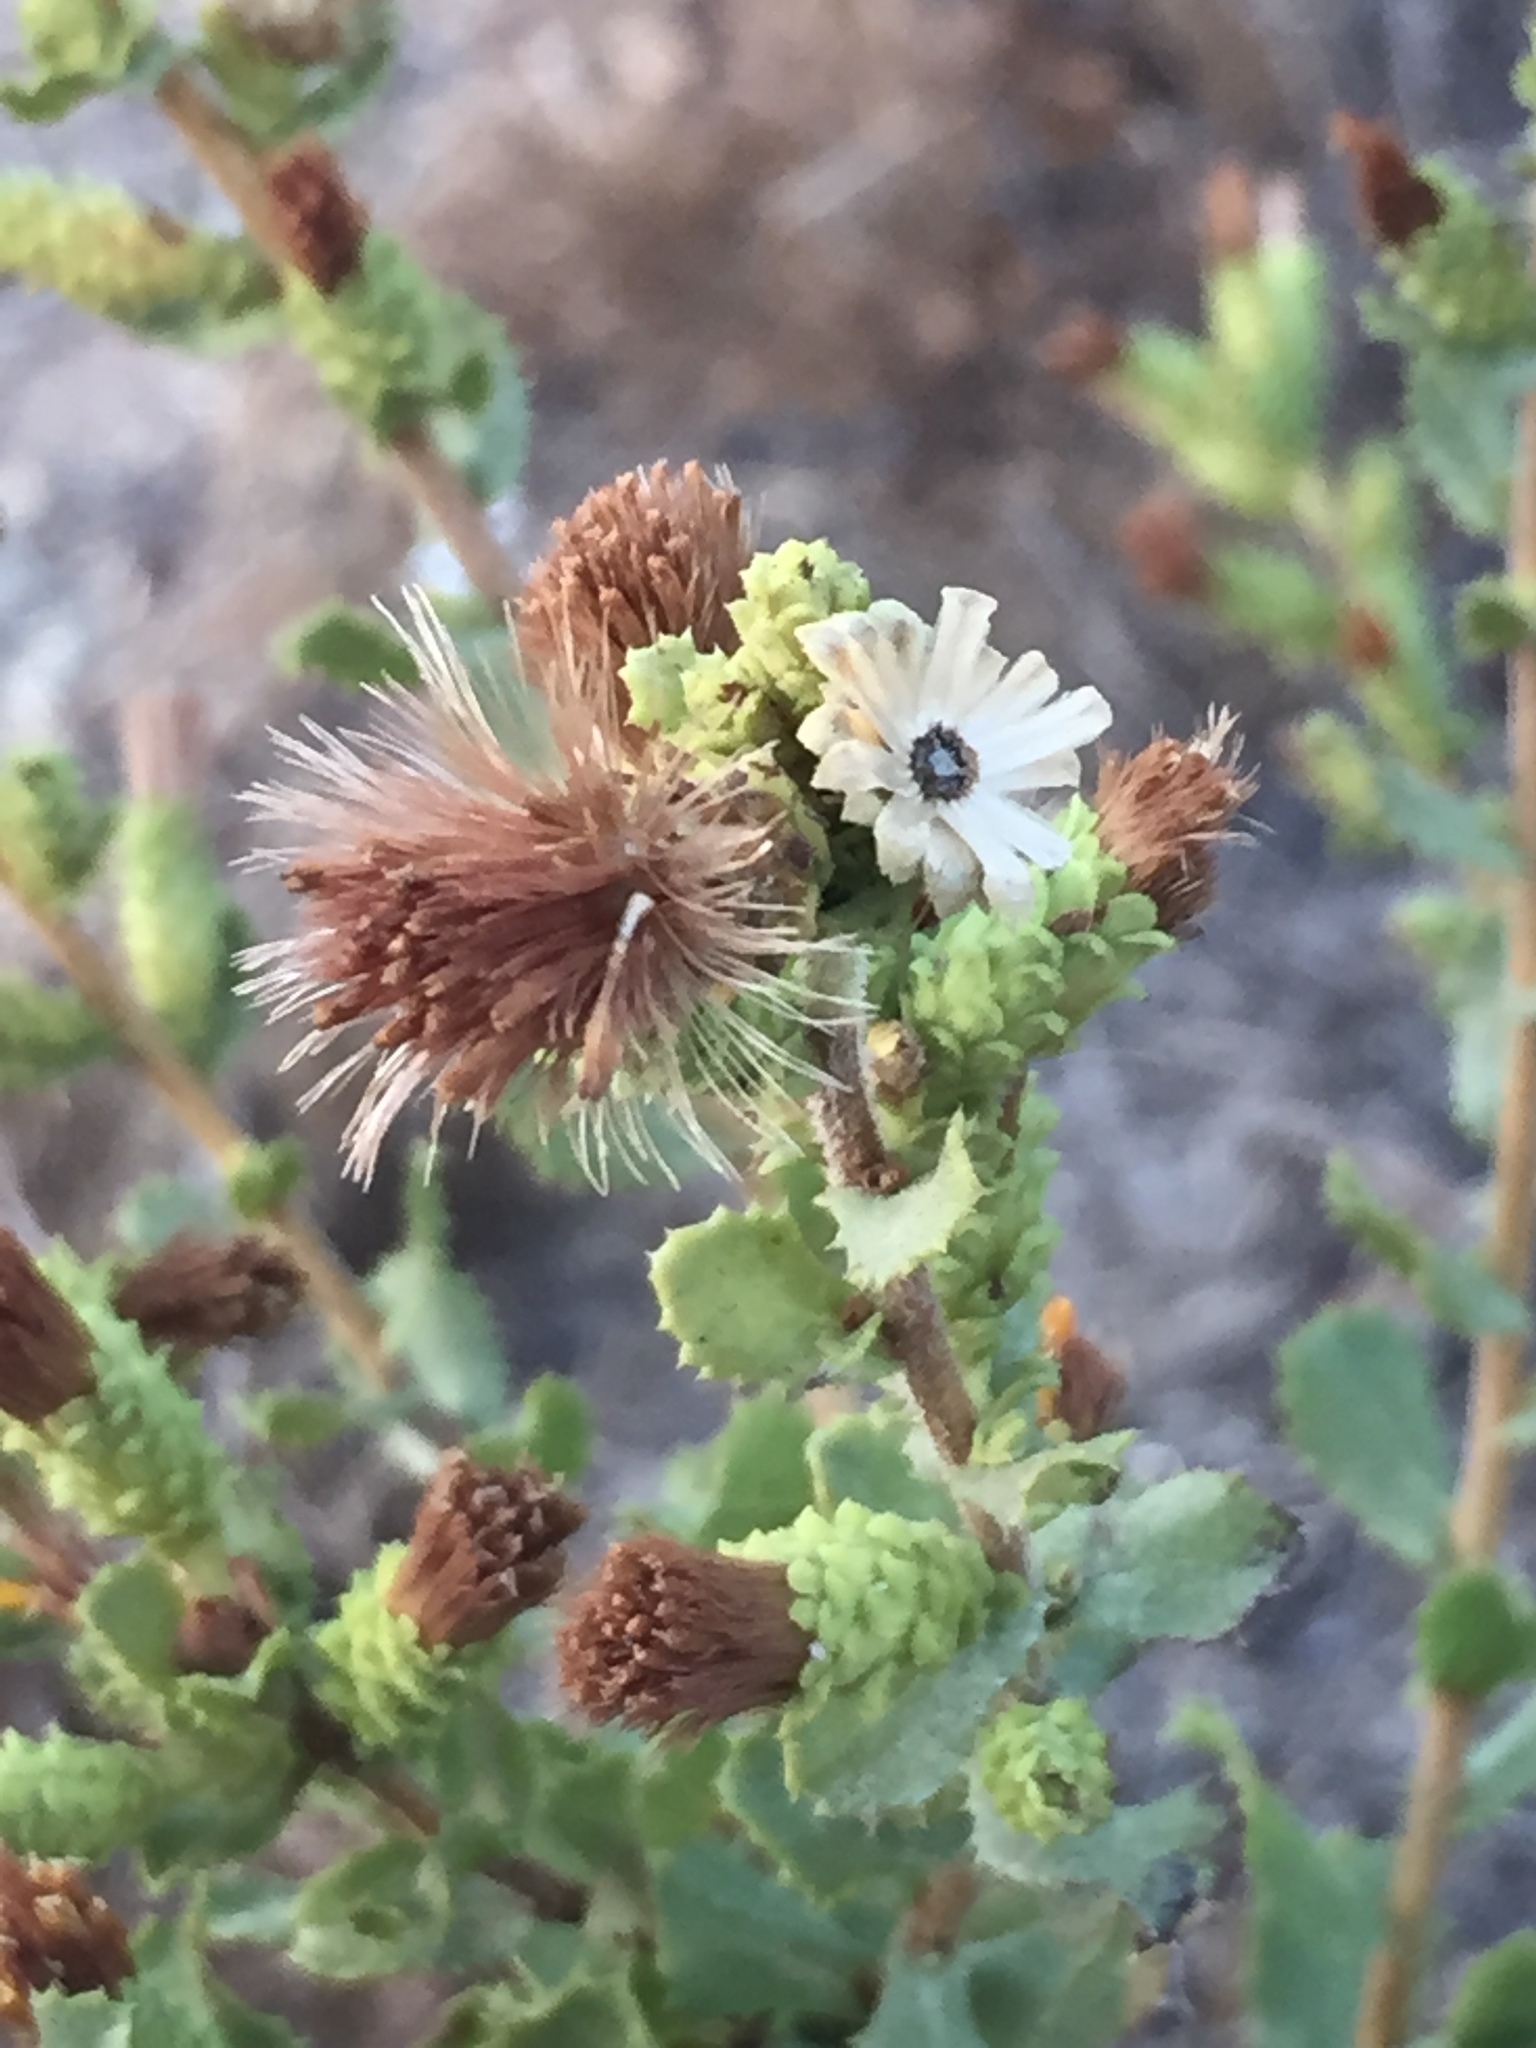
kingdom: Plantae
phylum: Tracheophyta
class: Magnoliopsida
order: Asterales
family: Asteraceae
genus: Hazardia
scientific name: Hazardia squarrosa
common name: Saw-tooth goldenbush
